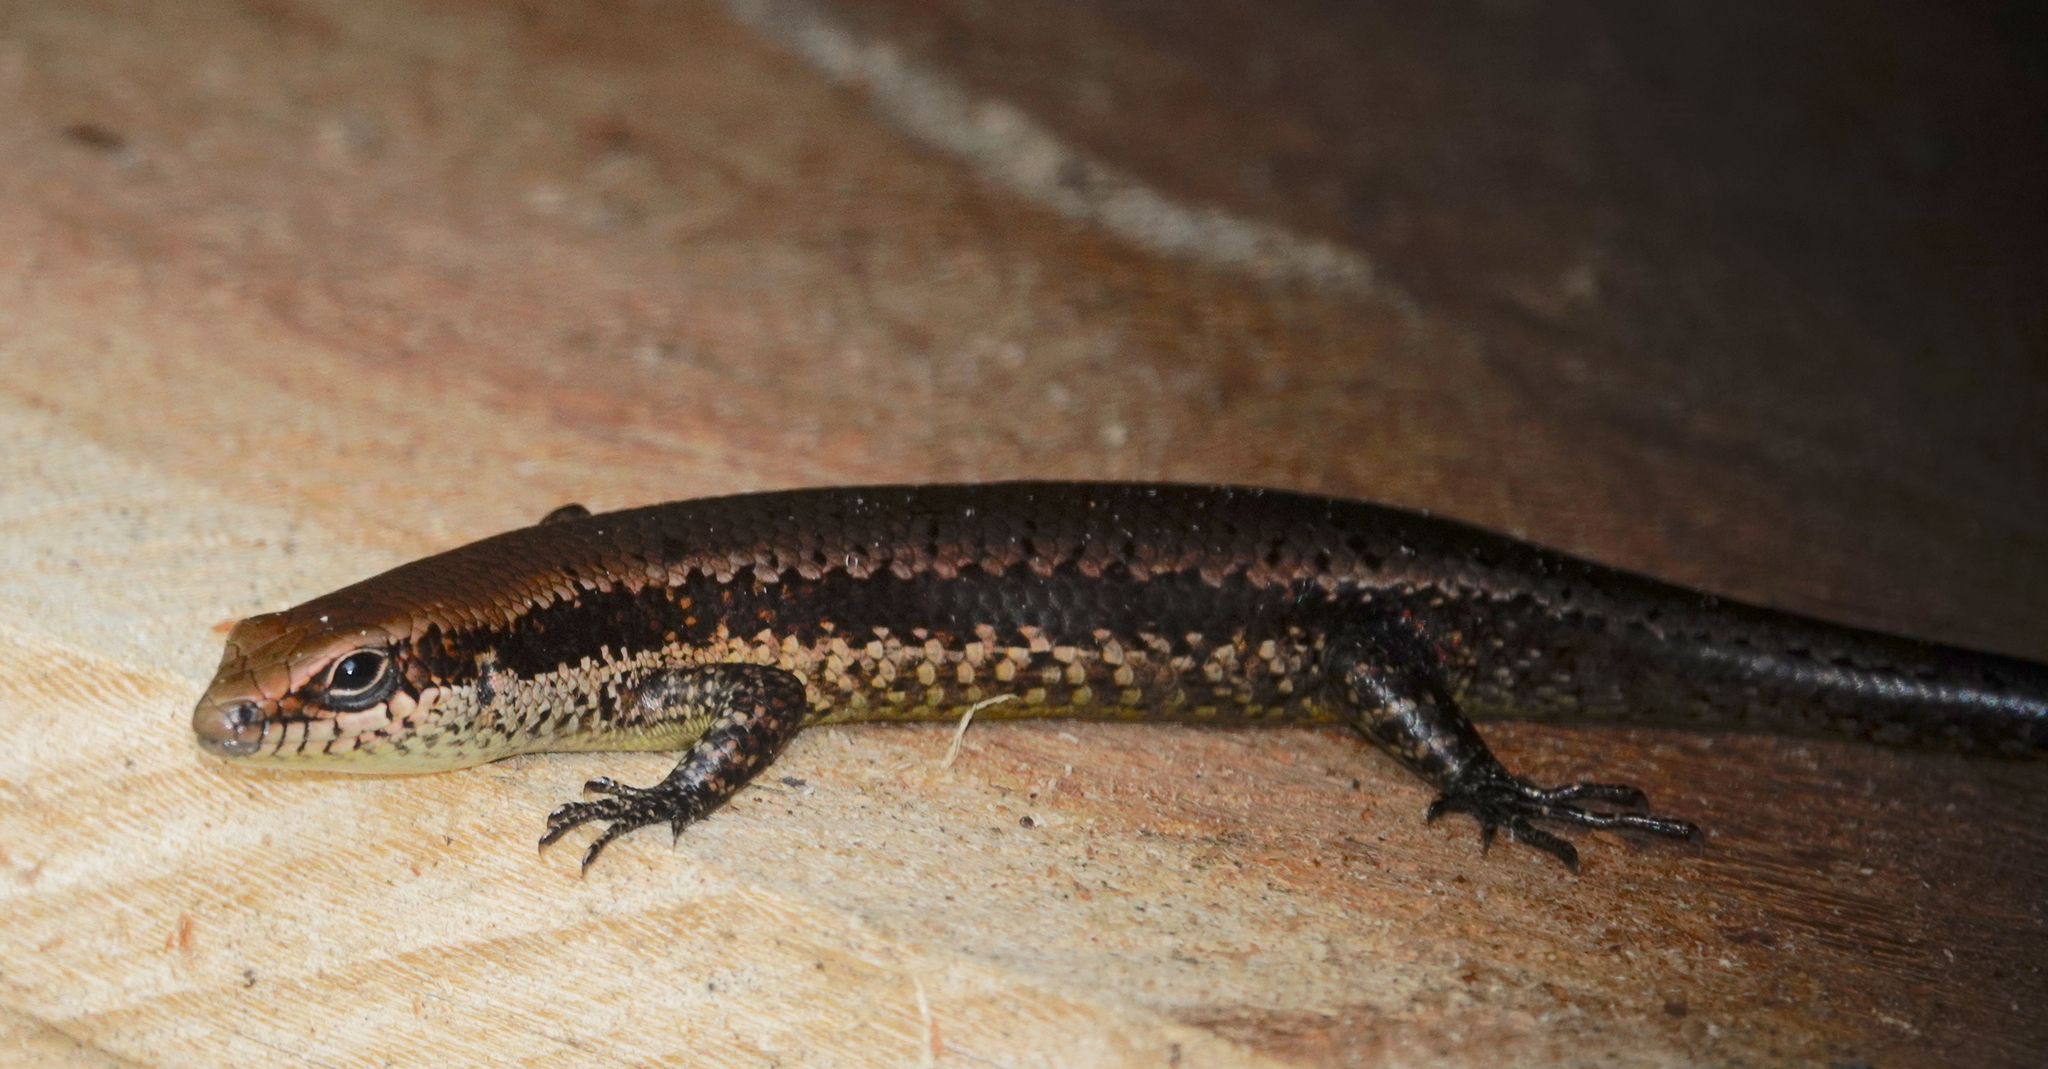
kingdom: Animalia
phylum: Chordata
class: Squamata
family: Scincidae
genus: Varzea
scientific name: Varzea altamazonica
